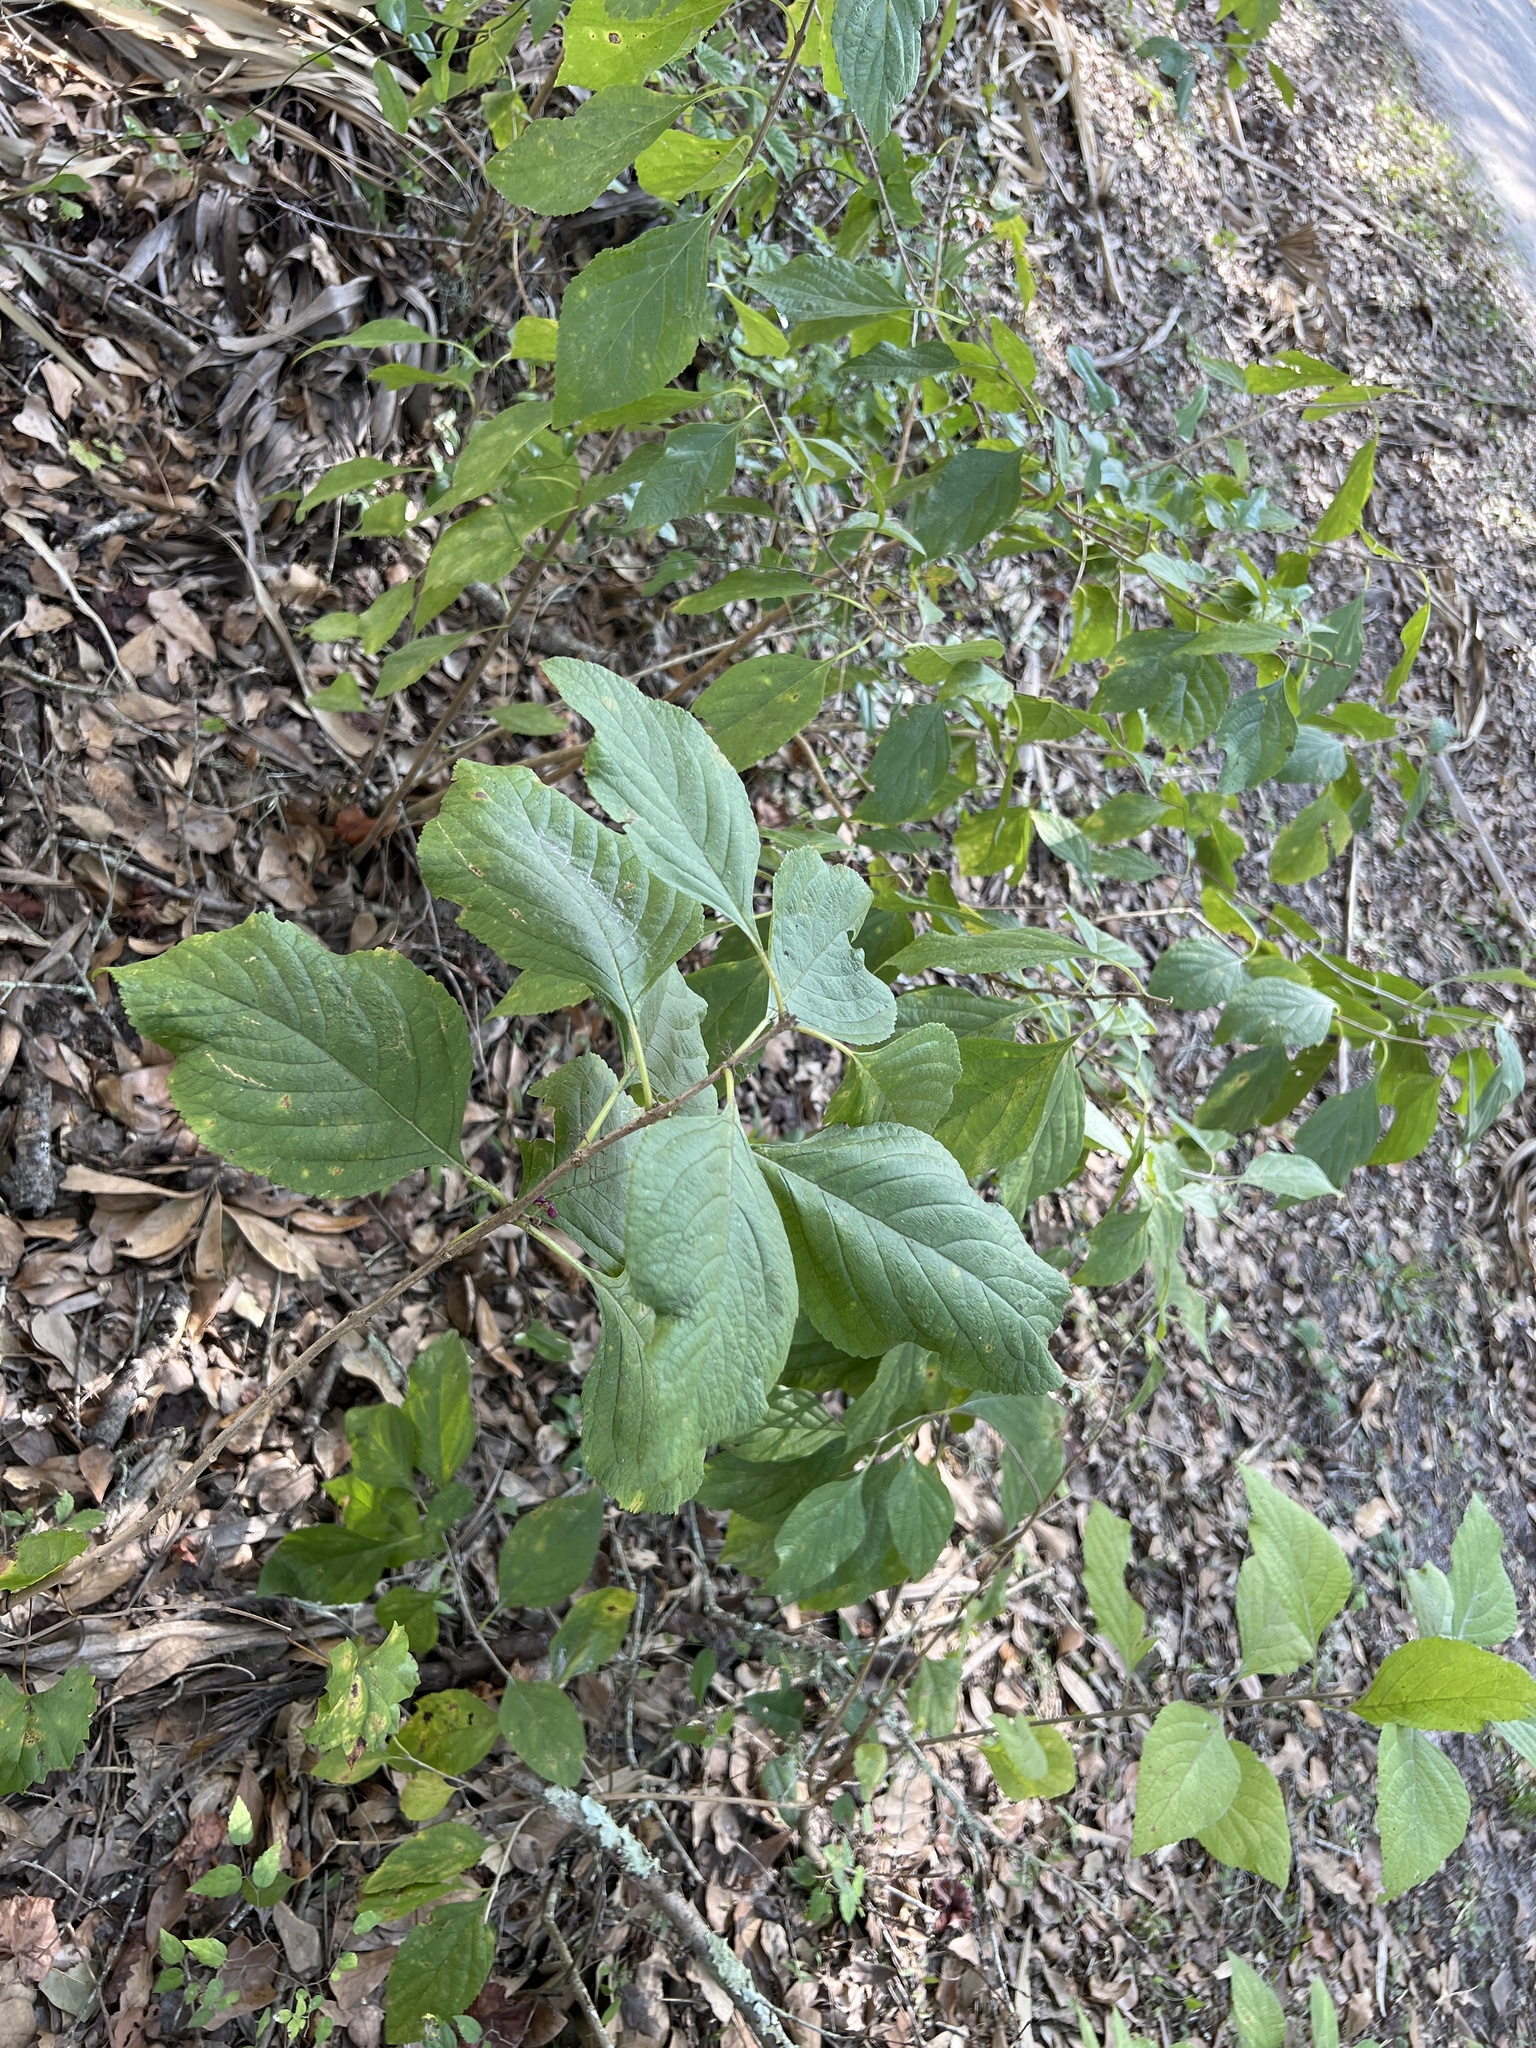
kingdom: Plantae
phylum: Tracheophyta
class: Magnoliopsida
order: Lamiales
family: Lamiaceae
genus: Callicarpa
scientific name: Callicarpa americana
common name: American beautyberry
